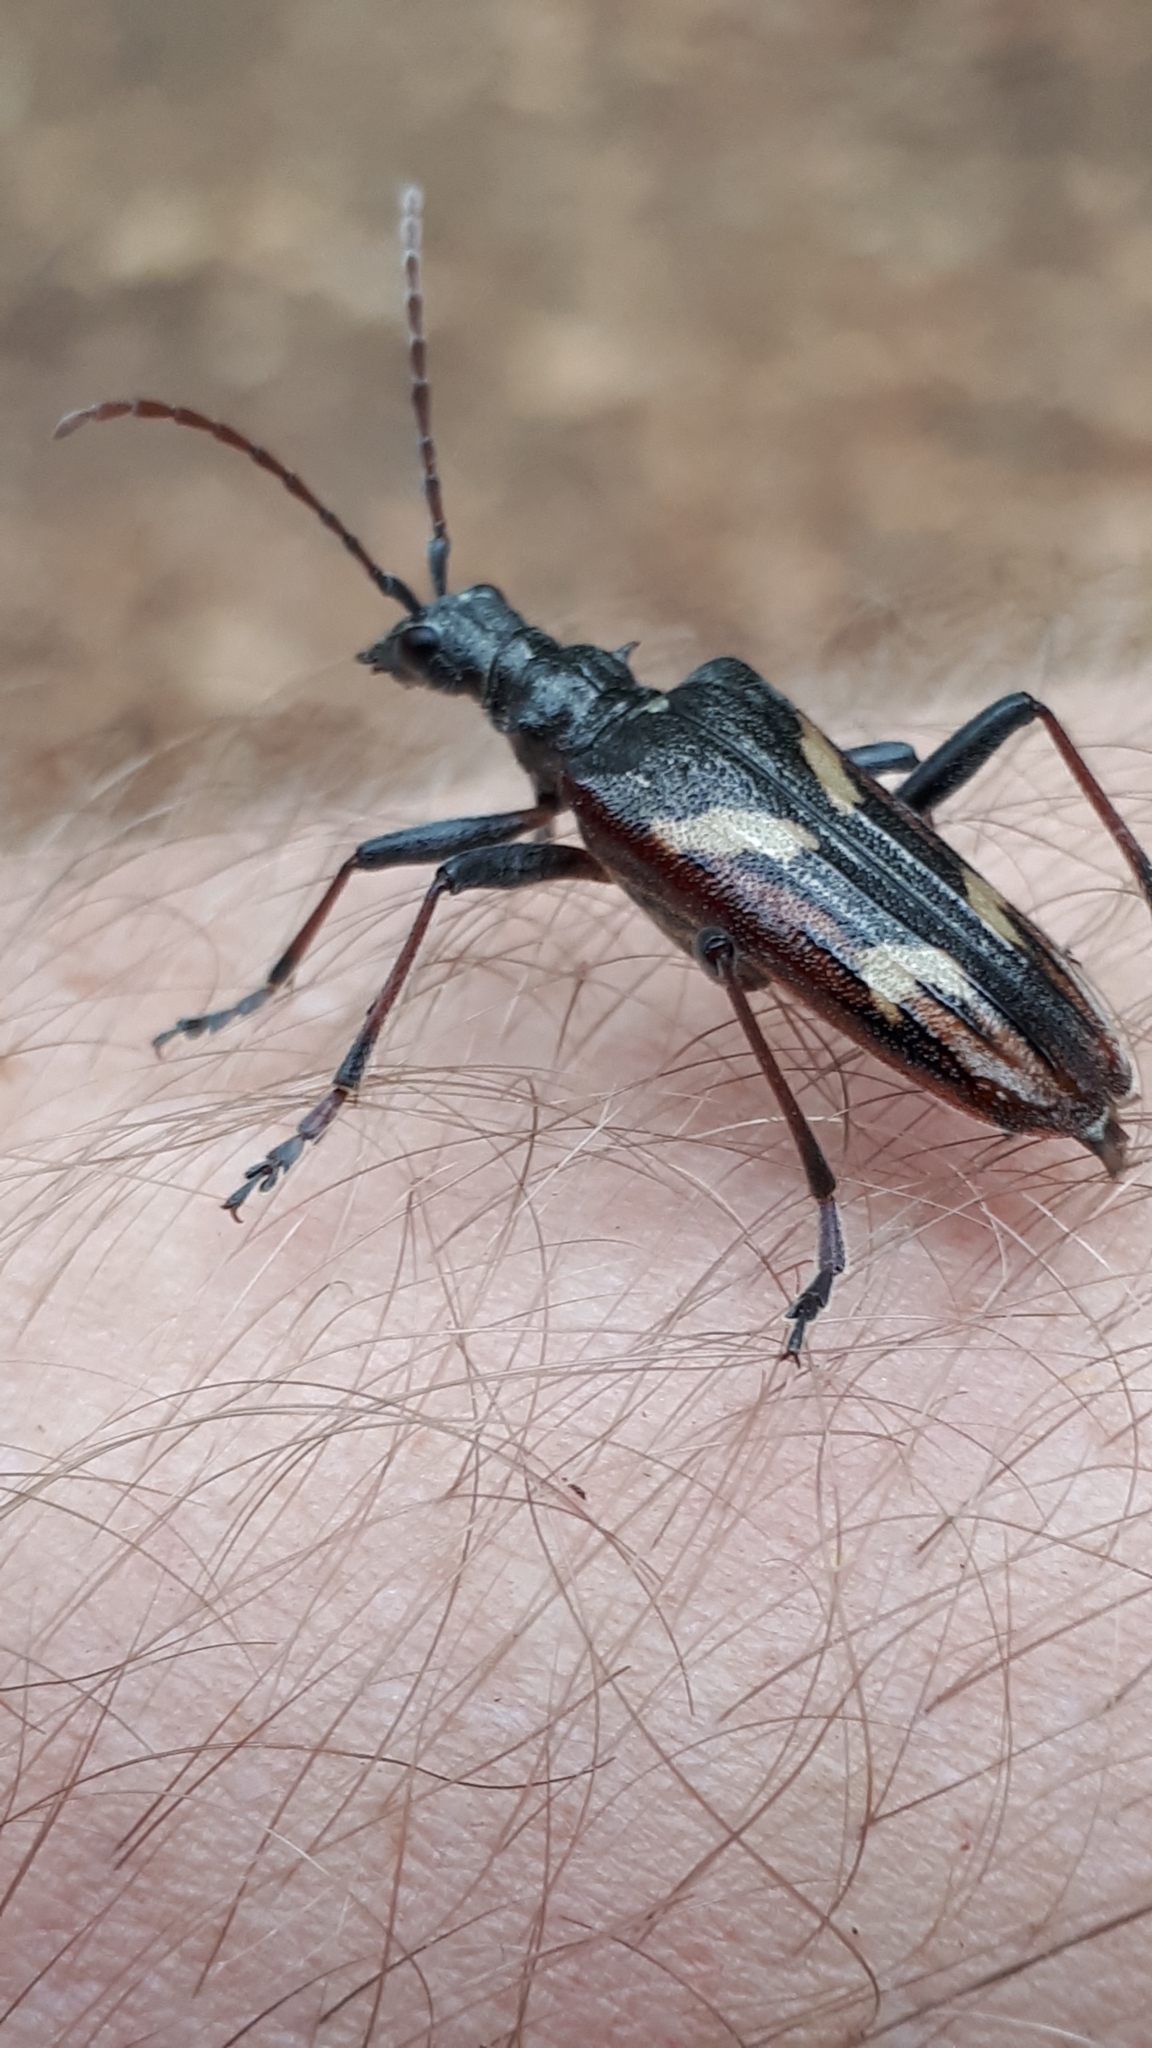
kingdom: Animalia
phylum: Arthropoda
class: Insecta
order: Coleoptera
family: Cerambycidae
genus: Rhagium
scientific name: Rhagium bifasciatum
